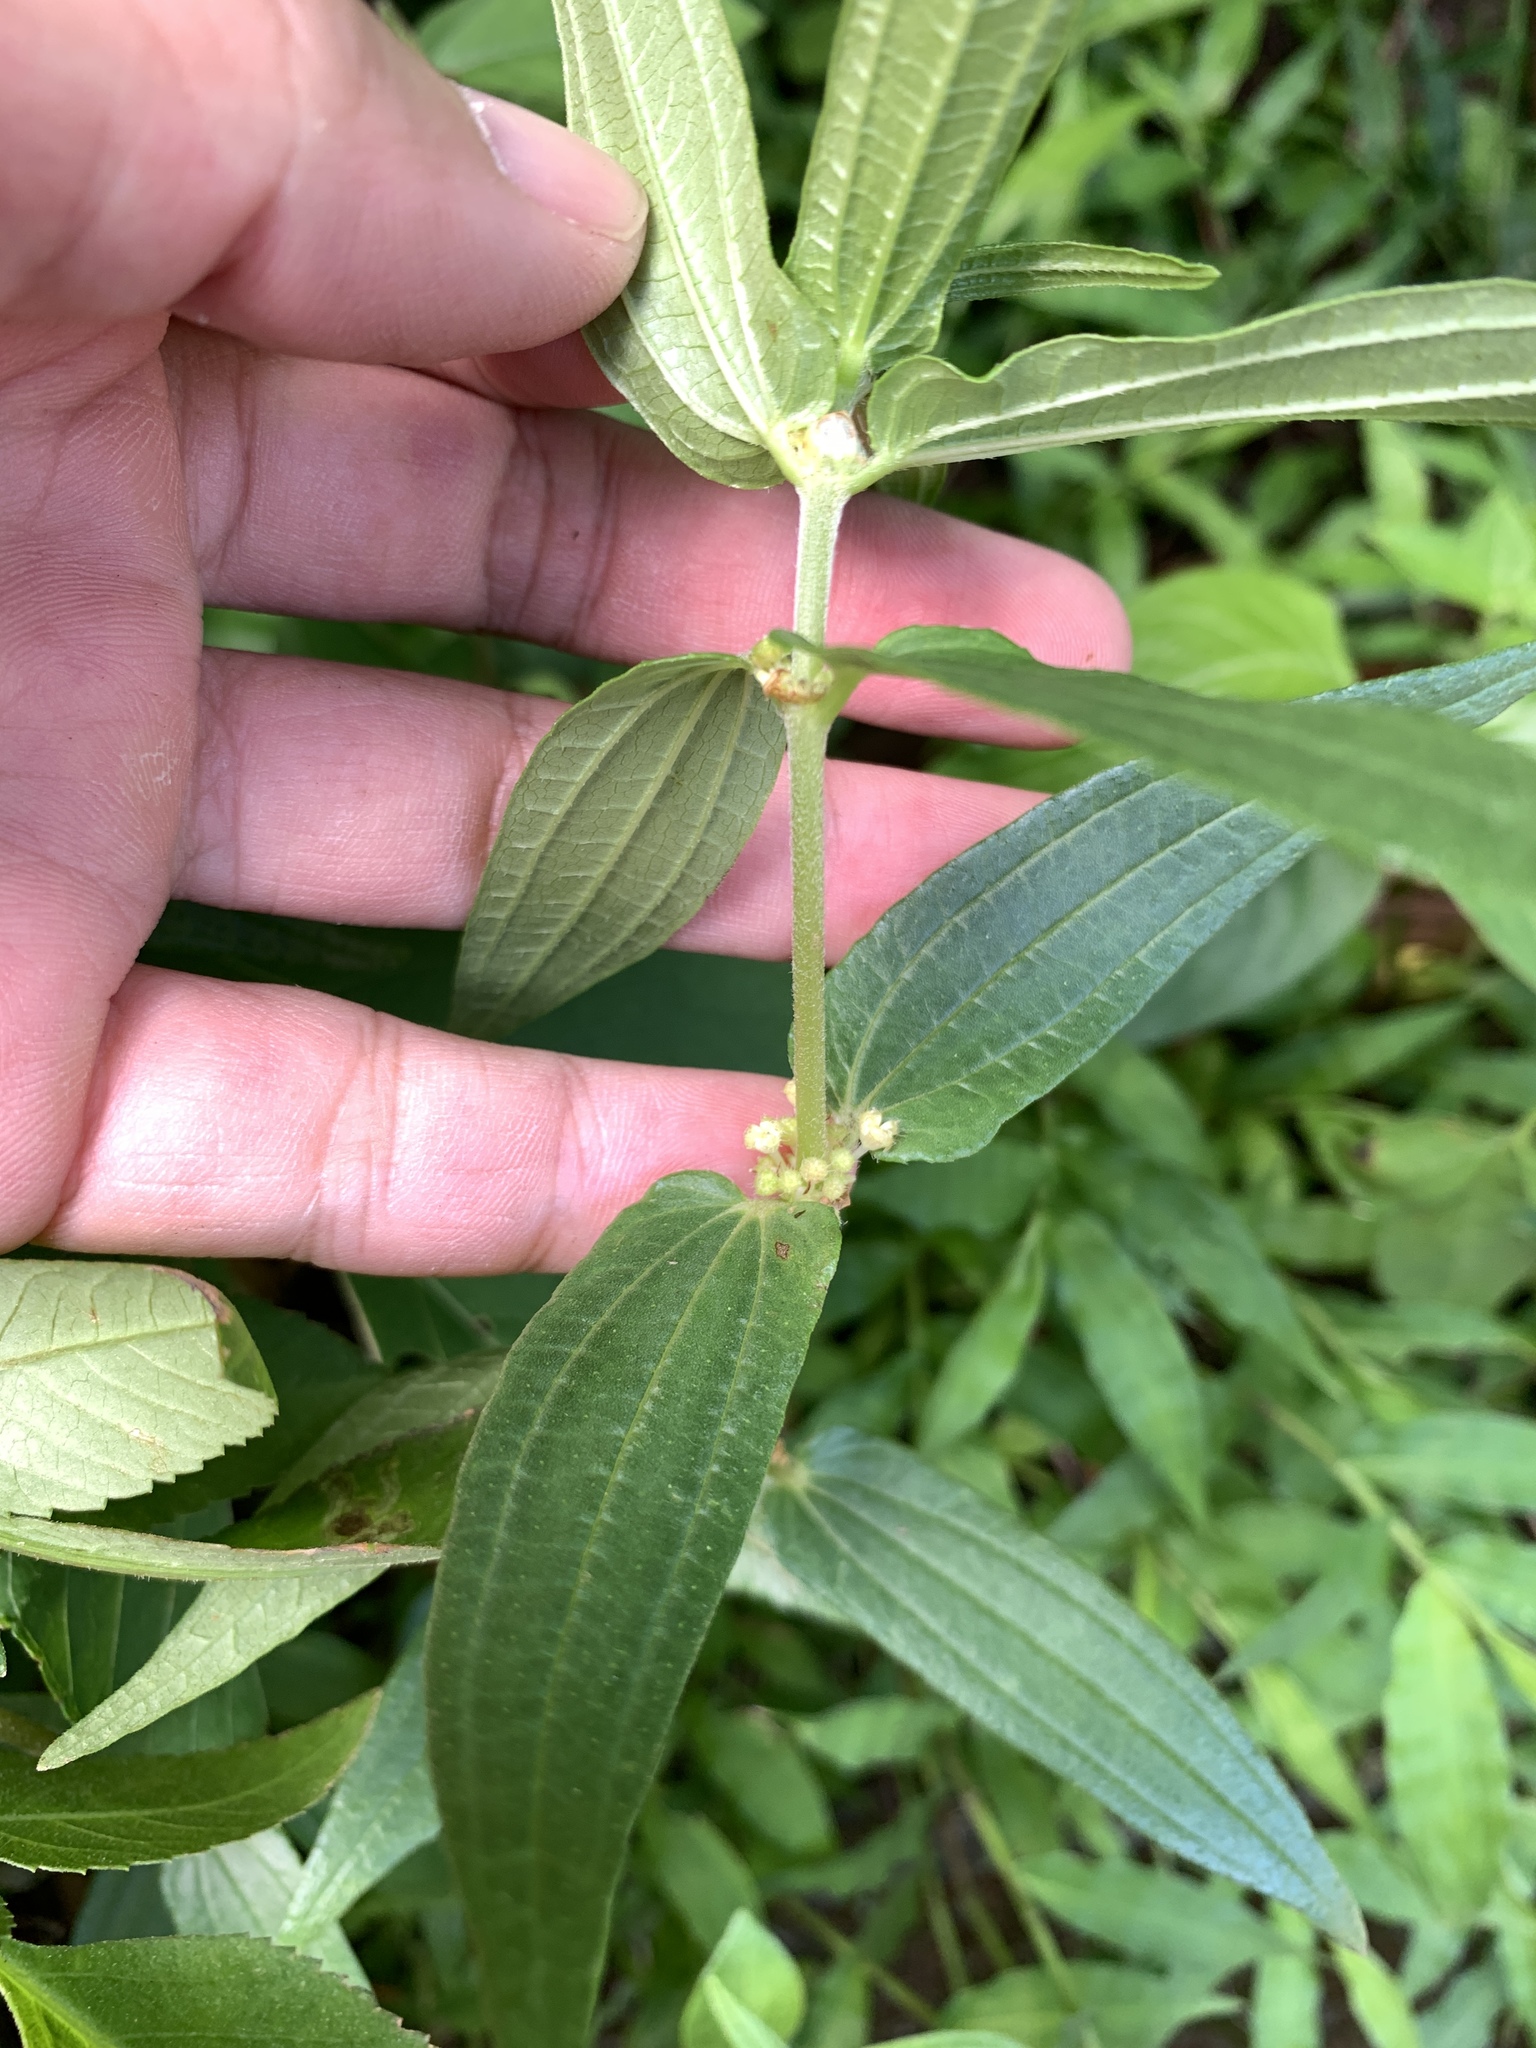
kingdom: Plantae
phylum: Tracheophyta
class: Magnoliopsida
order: Rosales
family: Urticaceae
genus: Gonostegia
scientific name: Gonostegia triandra
